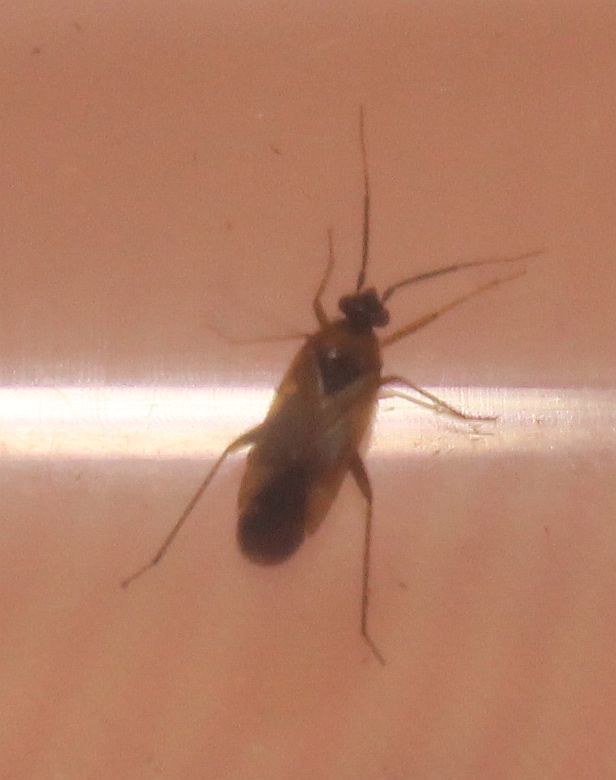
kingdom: Animalia
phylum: Arthropoda
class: Insecta
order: Hemiptera
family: Miridae
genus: Plagiognathus
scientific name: Plagiognathus arbustorum
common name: Plant bug
